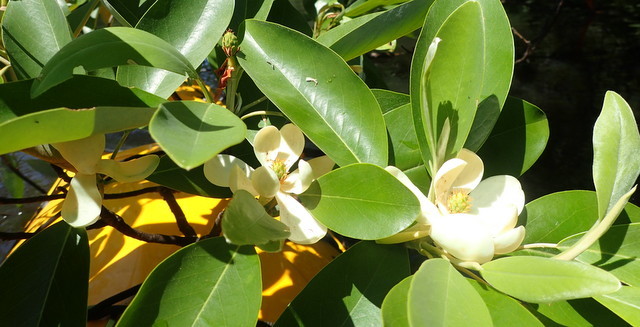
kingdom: Plantae
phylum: Tracheophyta
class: Magnoliopsida
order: Magnoliales
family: Magnoliaceae
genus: Magnolia
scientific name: Magnolia virginiana
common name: Swamp bay
